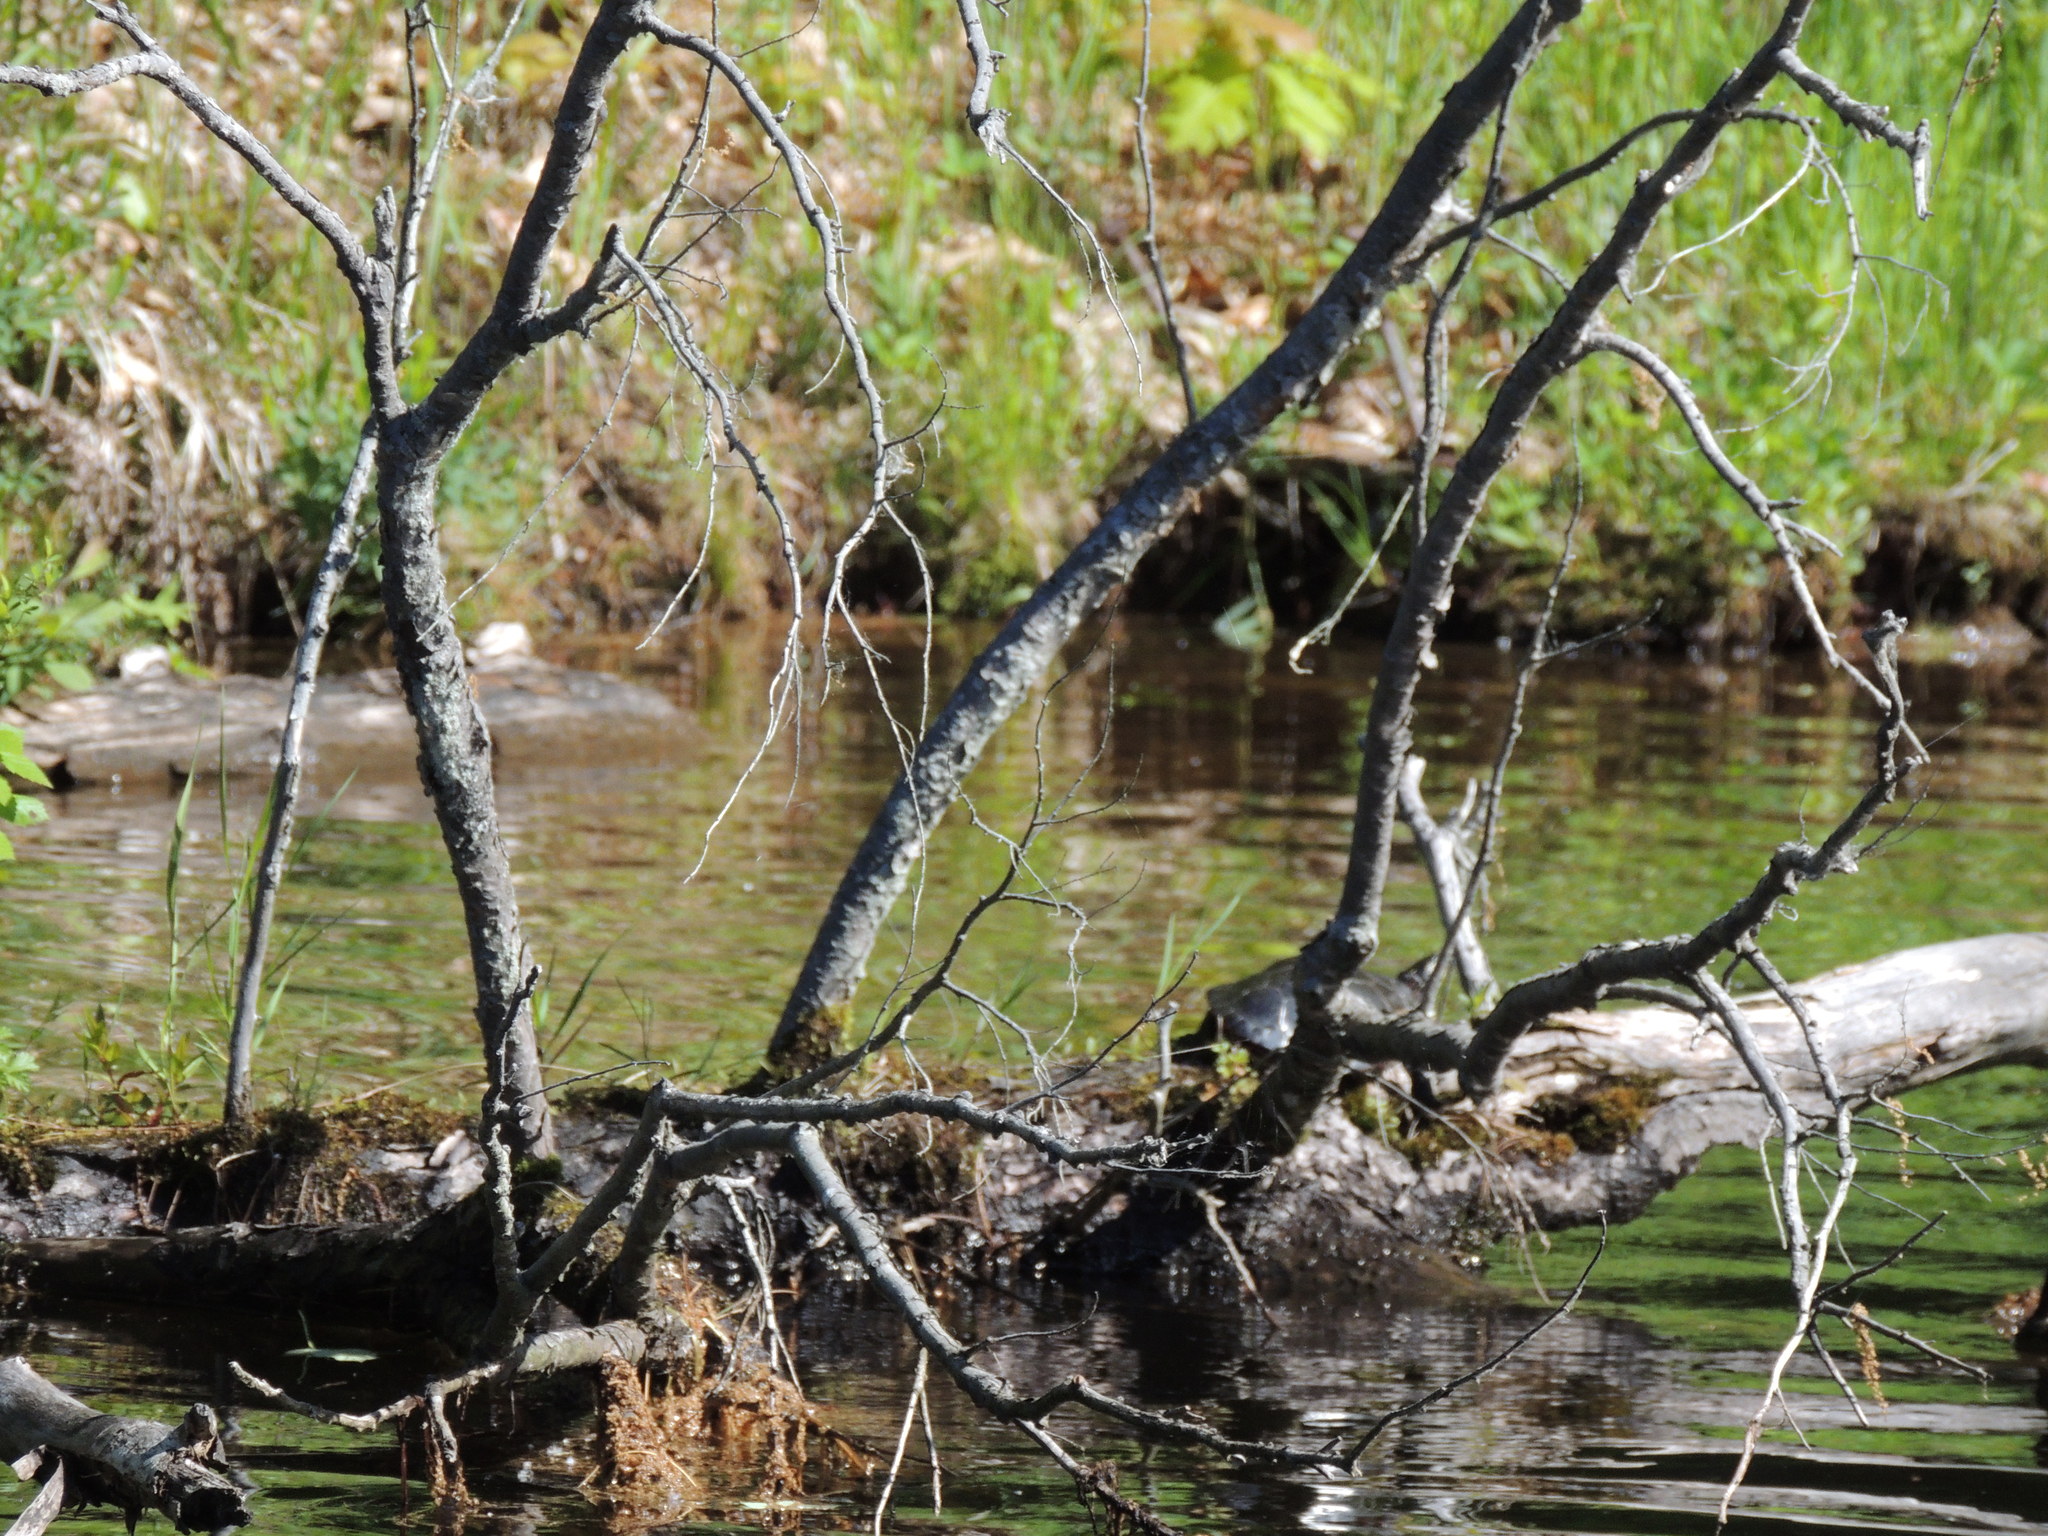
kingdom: Animalia
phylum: Chordata
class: Testudines
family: Emydidae
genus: Chrysemys
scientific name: Chrysemys picta
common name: Painted turtle
